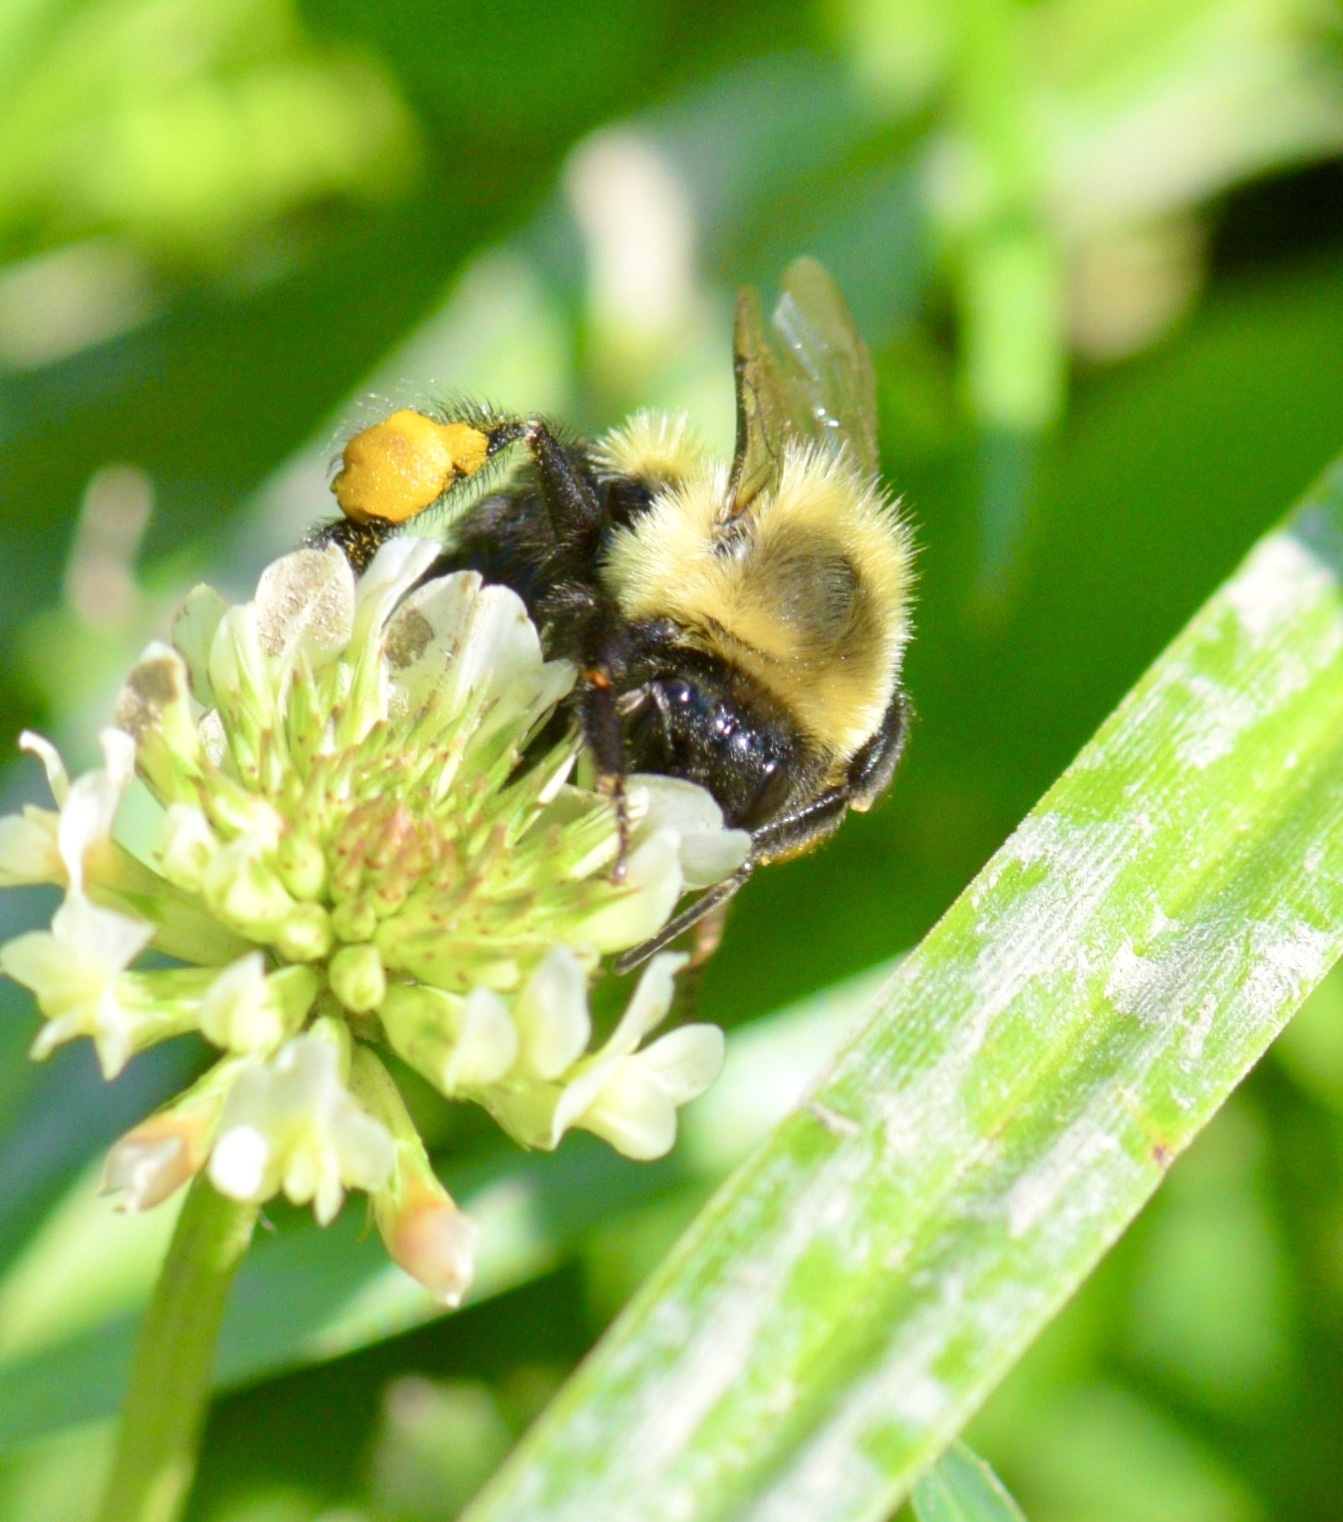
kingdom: Animalia
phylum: Arthropoda
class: Insecta
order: Hymenoptera
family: Apidae
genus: Bombus
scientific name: Bombus impatiens
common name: Common eastern bumble bee
